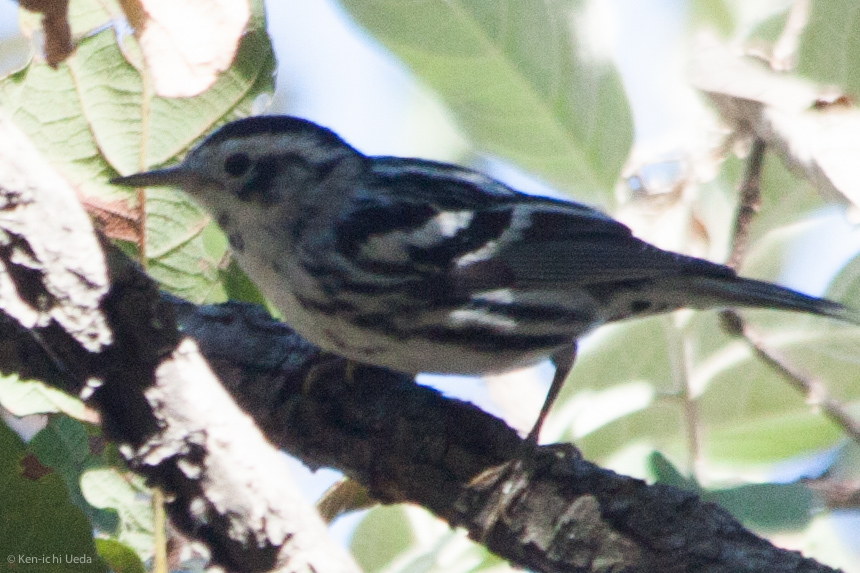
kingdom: Animalia
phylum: Chordata
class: Aves
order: Passeriformes
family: Parulidae
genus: Mniotilta
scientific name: Mniotilta varia
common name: Black-and-white warbler
